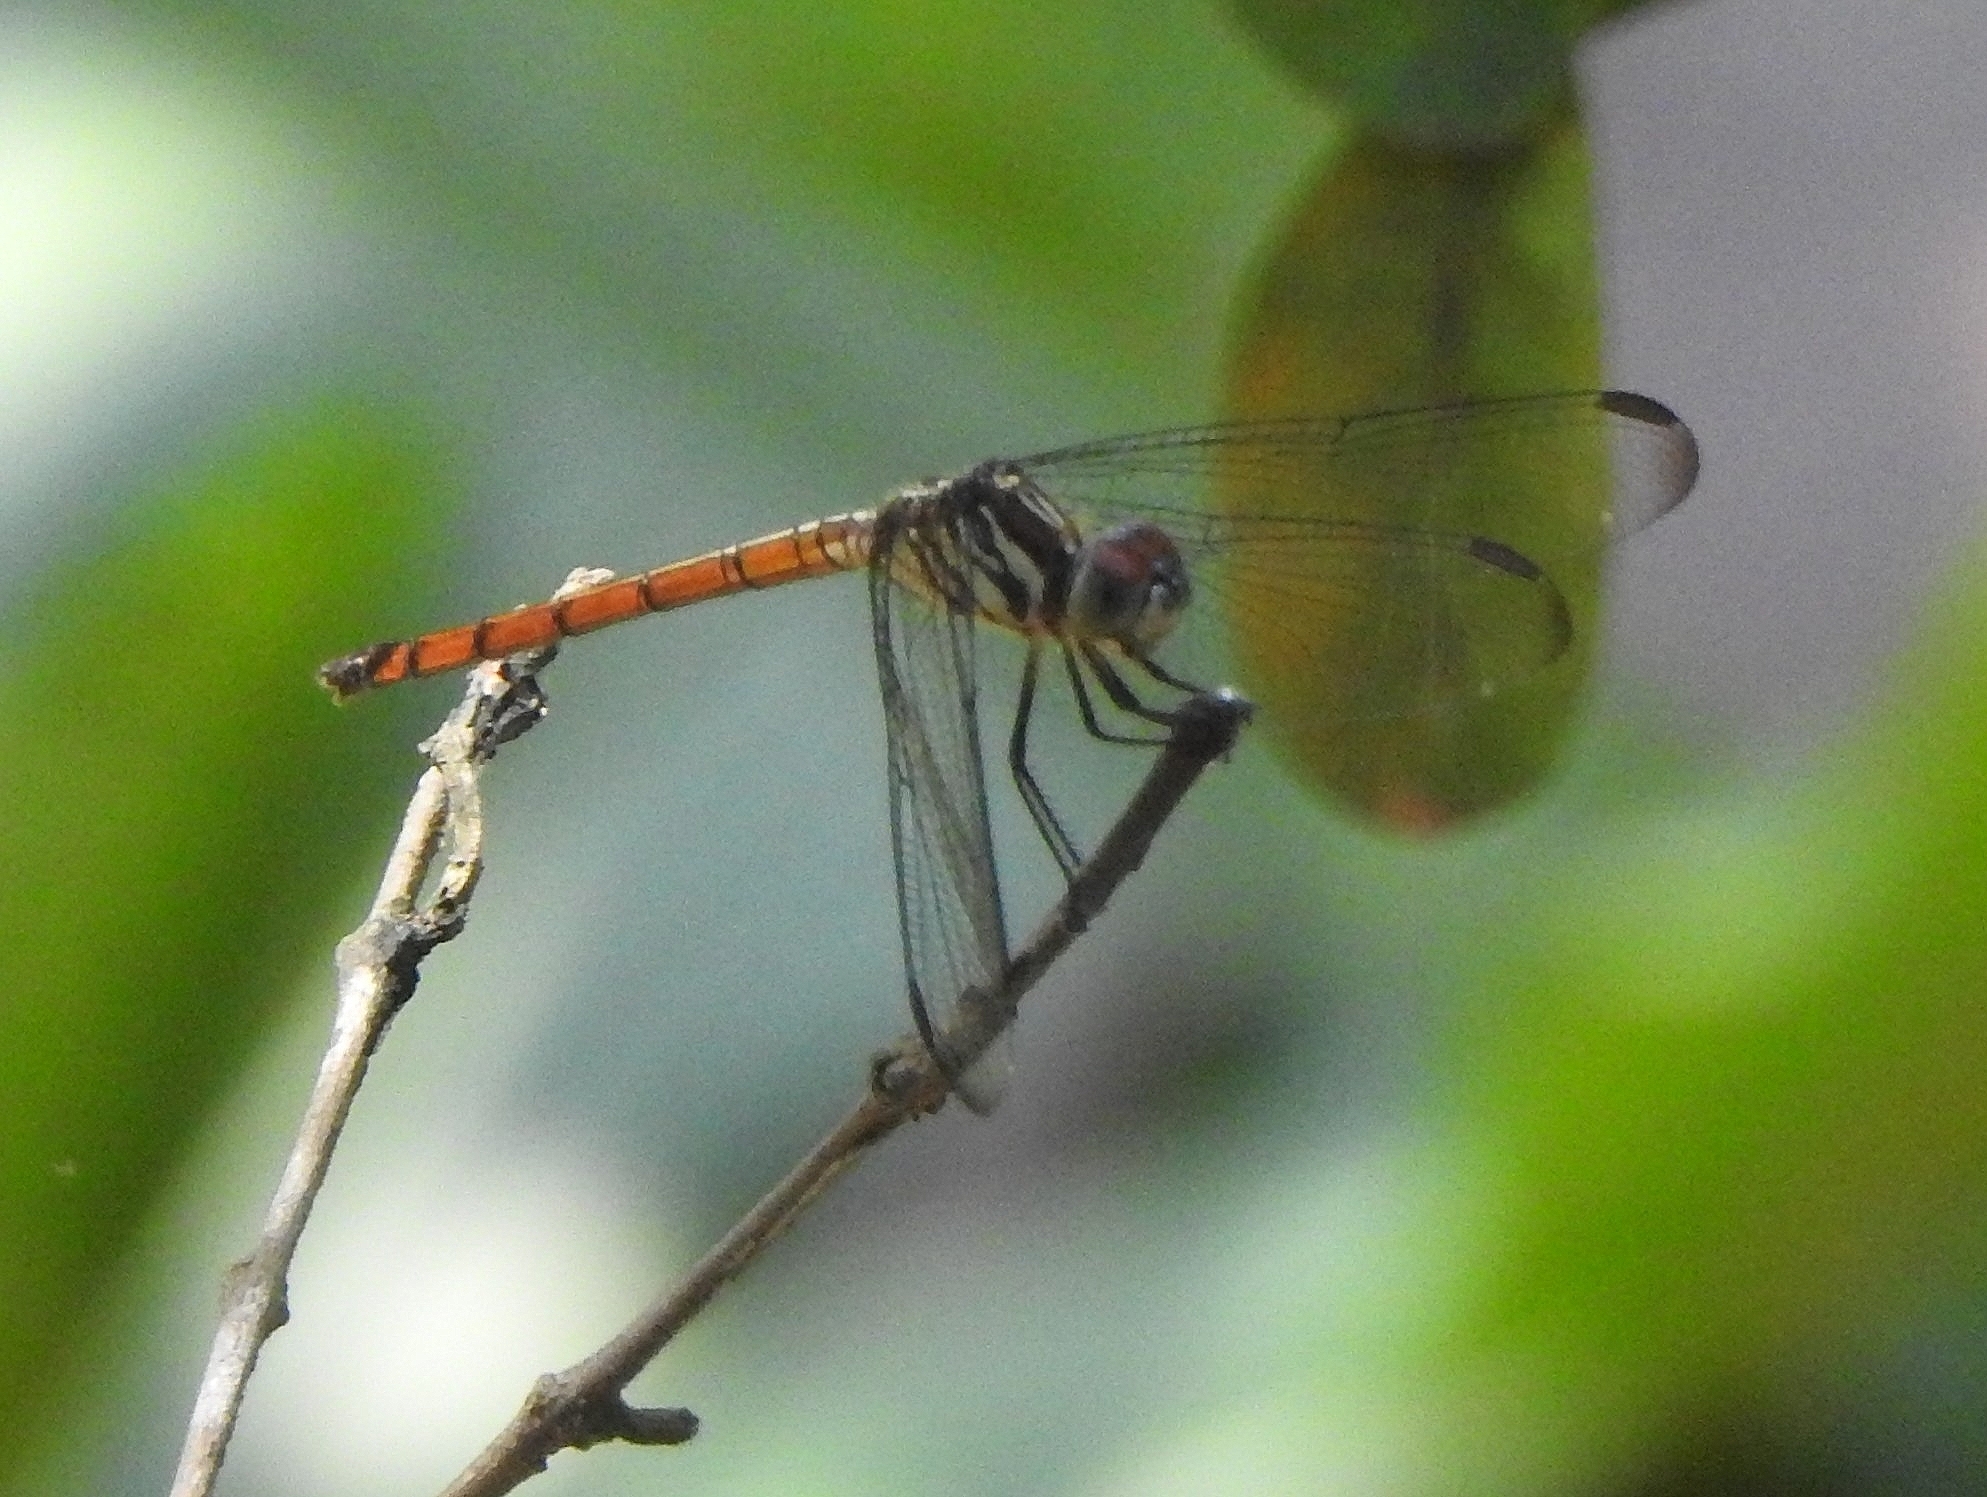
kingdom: Animalia
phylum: Arthropoda
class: Insecta
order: Odonata
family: Libellulidae
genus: Lathrecista
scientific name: Lathrecista asiatica
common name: Scarlet grenadier
